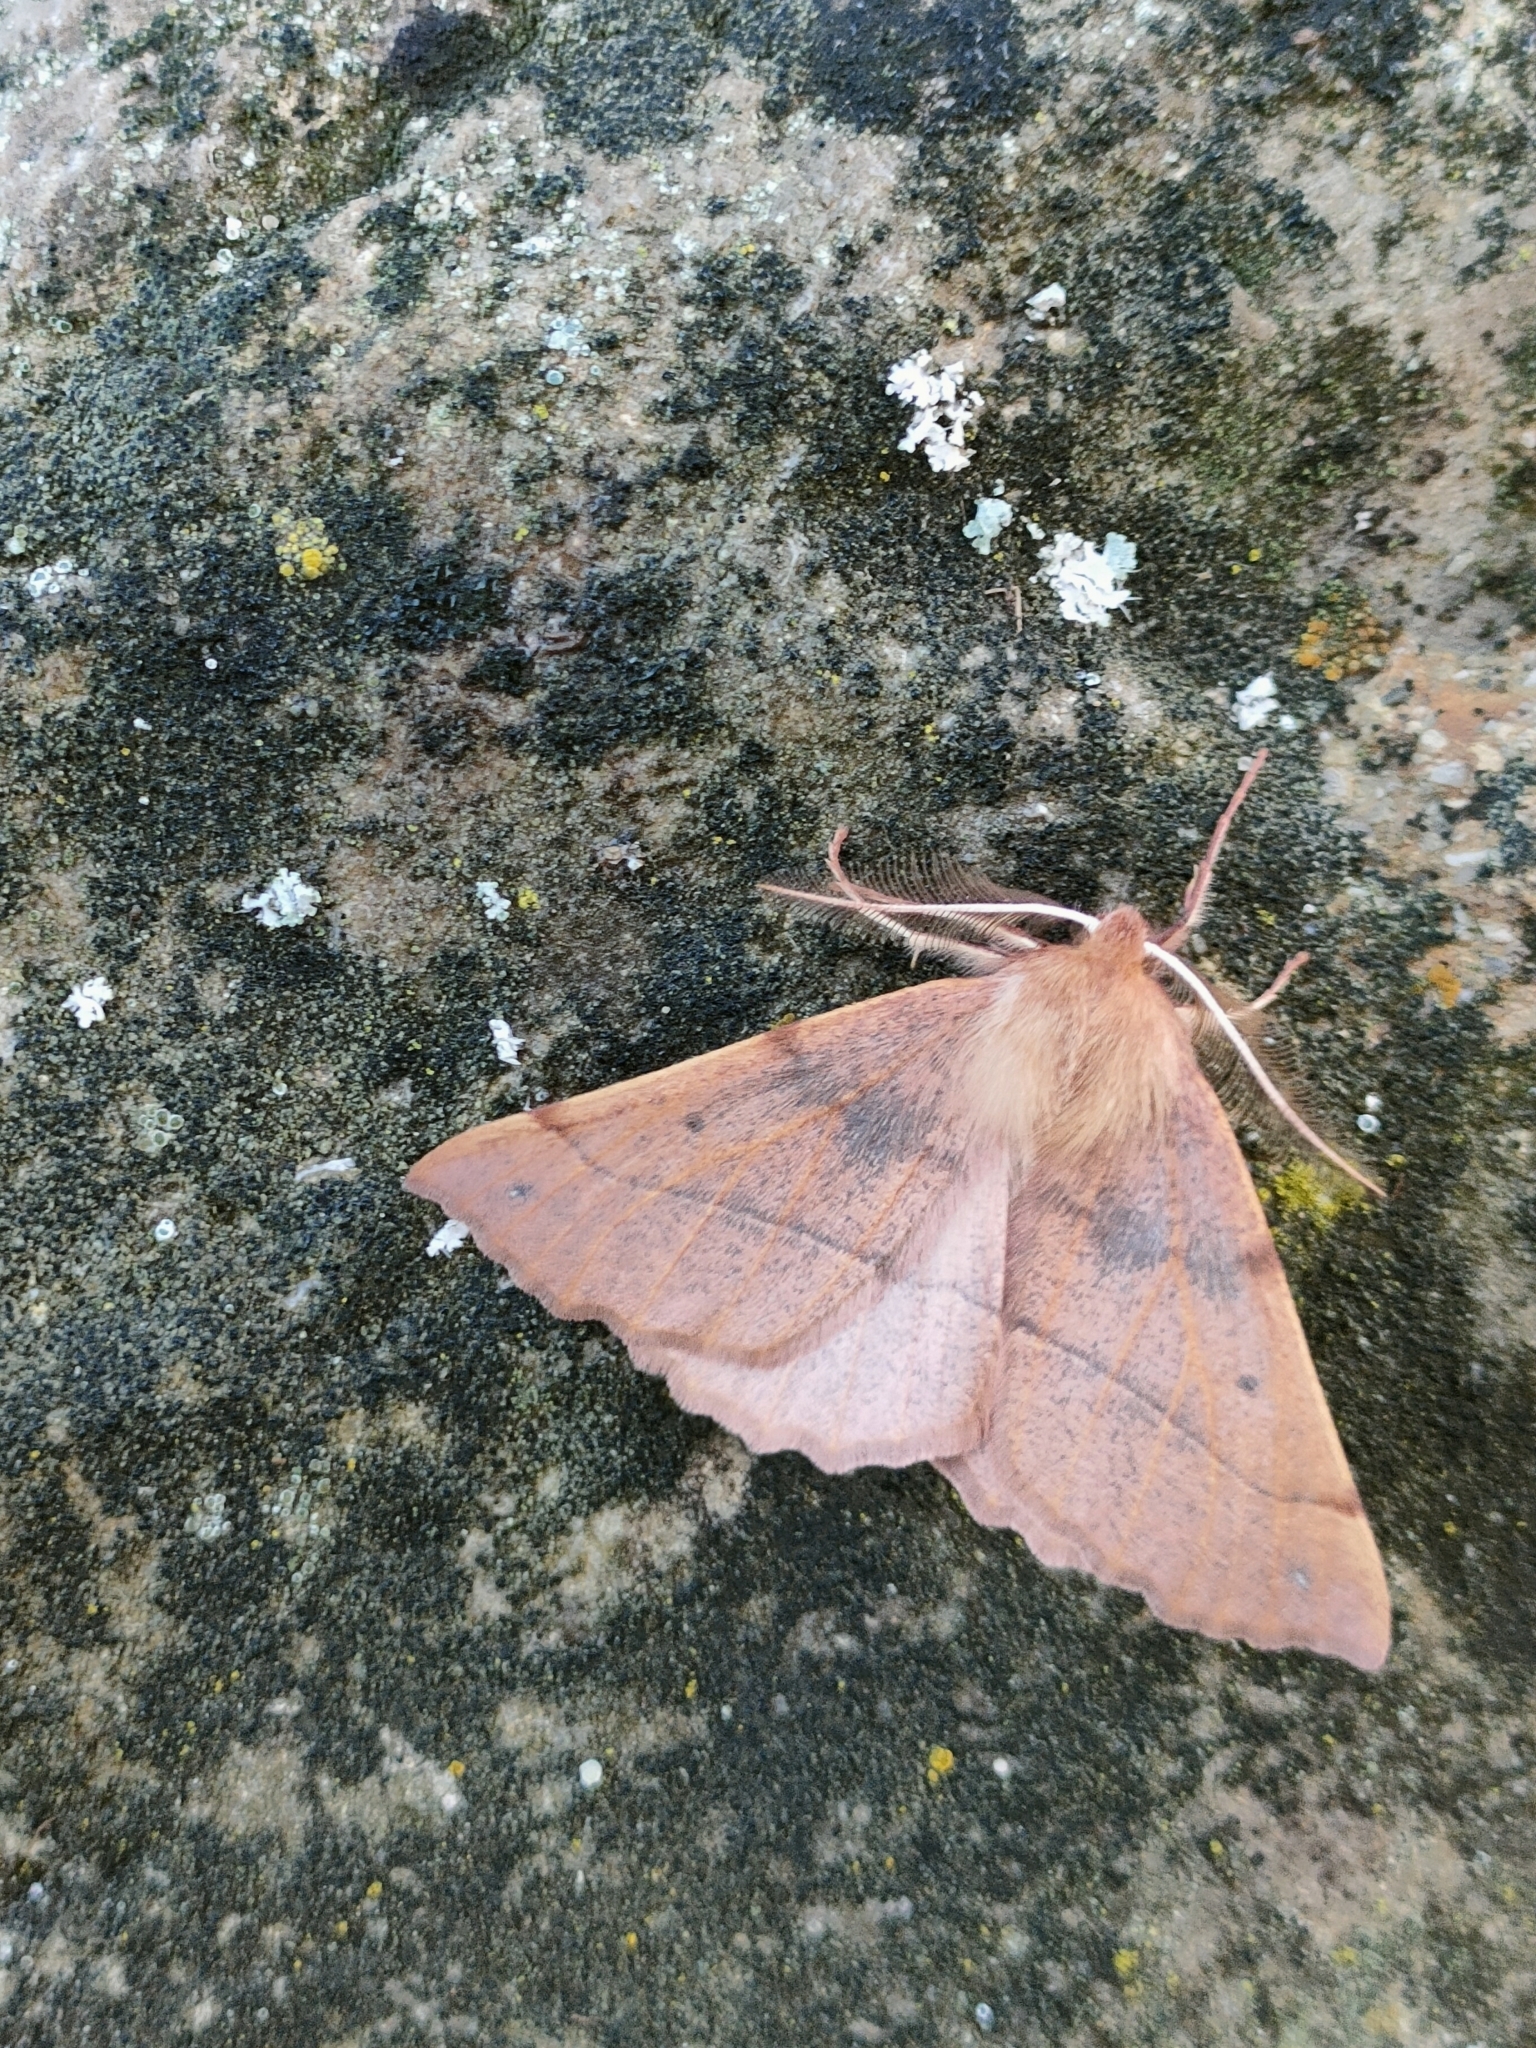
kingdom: Animalia
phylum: Arthropoda
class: Insecta
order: Lepidoptera
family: Geometridae
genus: Colotois
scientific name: Colotois pennaria
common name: Feathered thorn
